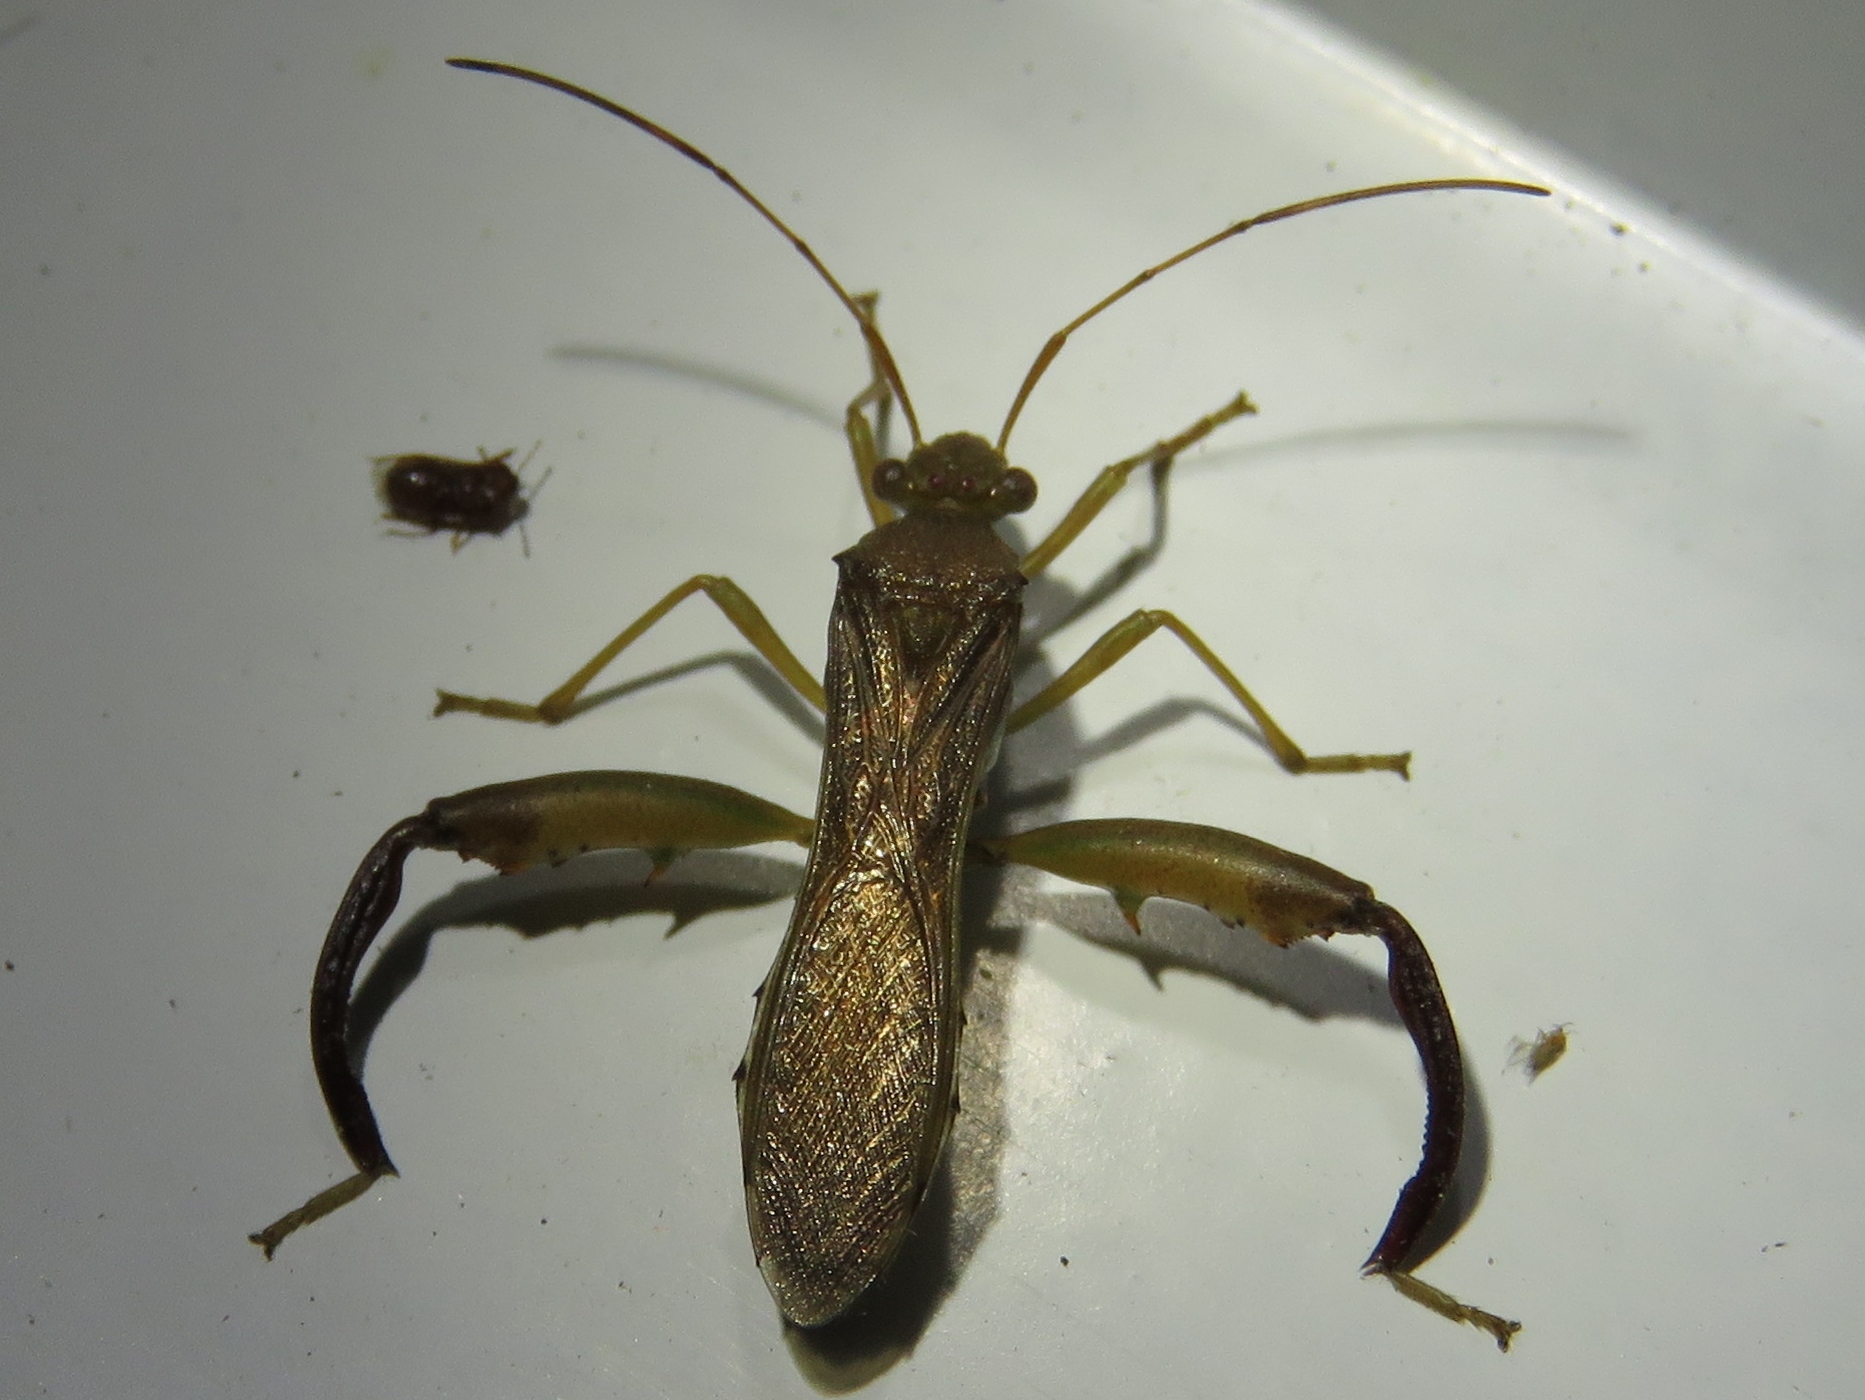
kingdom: Animalia
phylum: Arthropoda
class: Insecta
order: Hemiptera
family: Alydidae
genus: Hyalymenus
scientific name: Hyalymenus tarsatus
